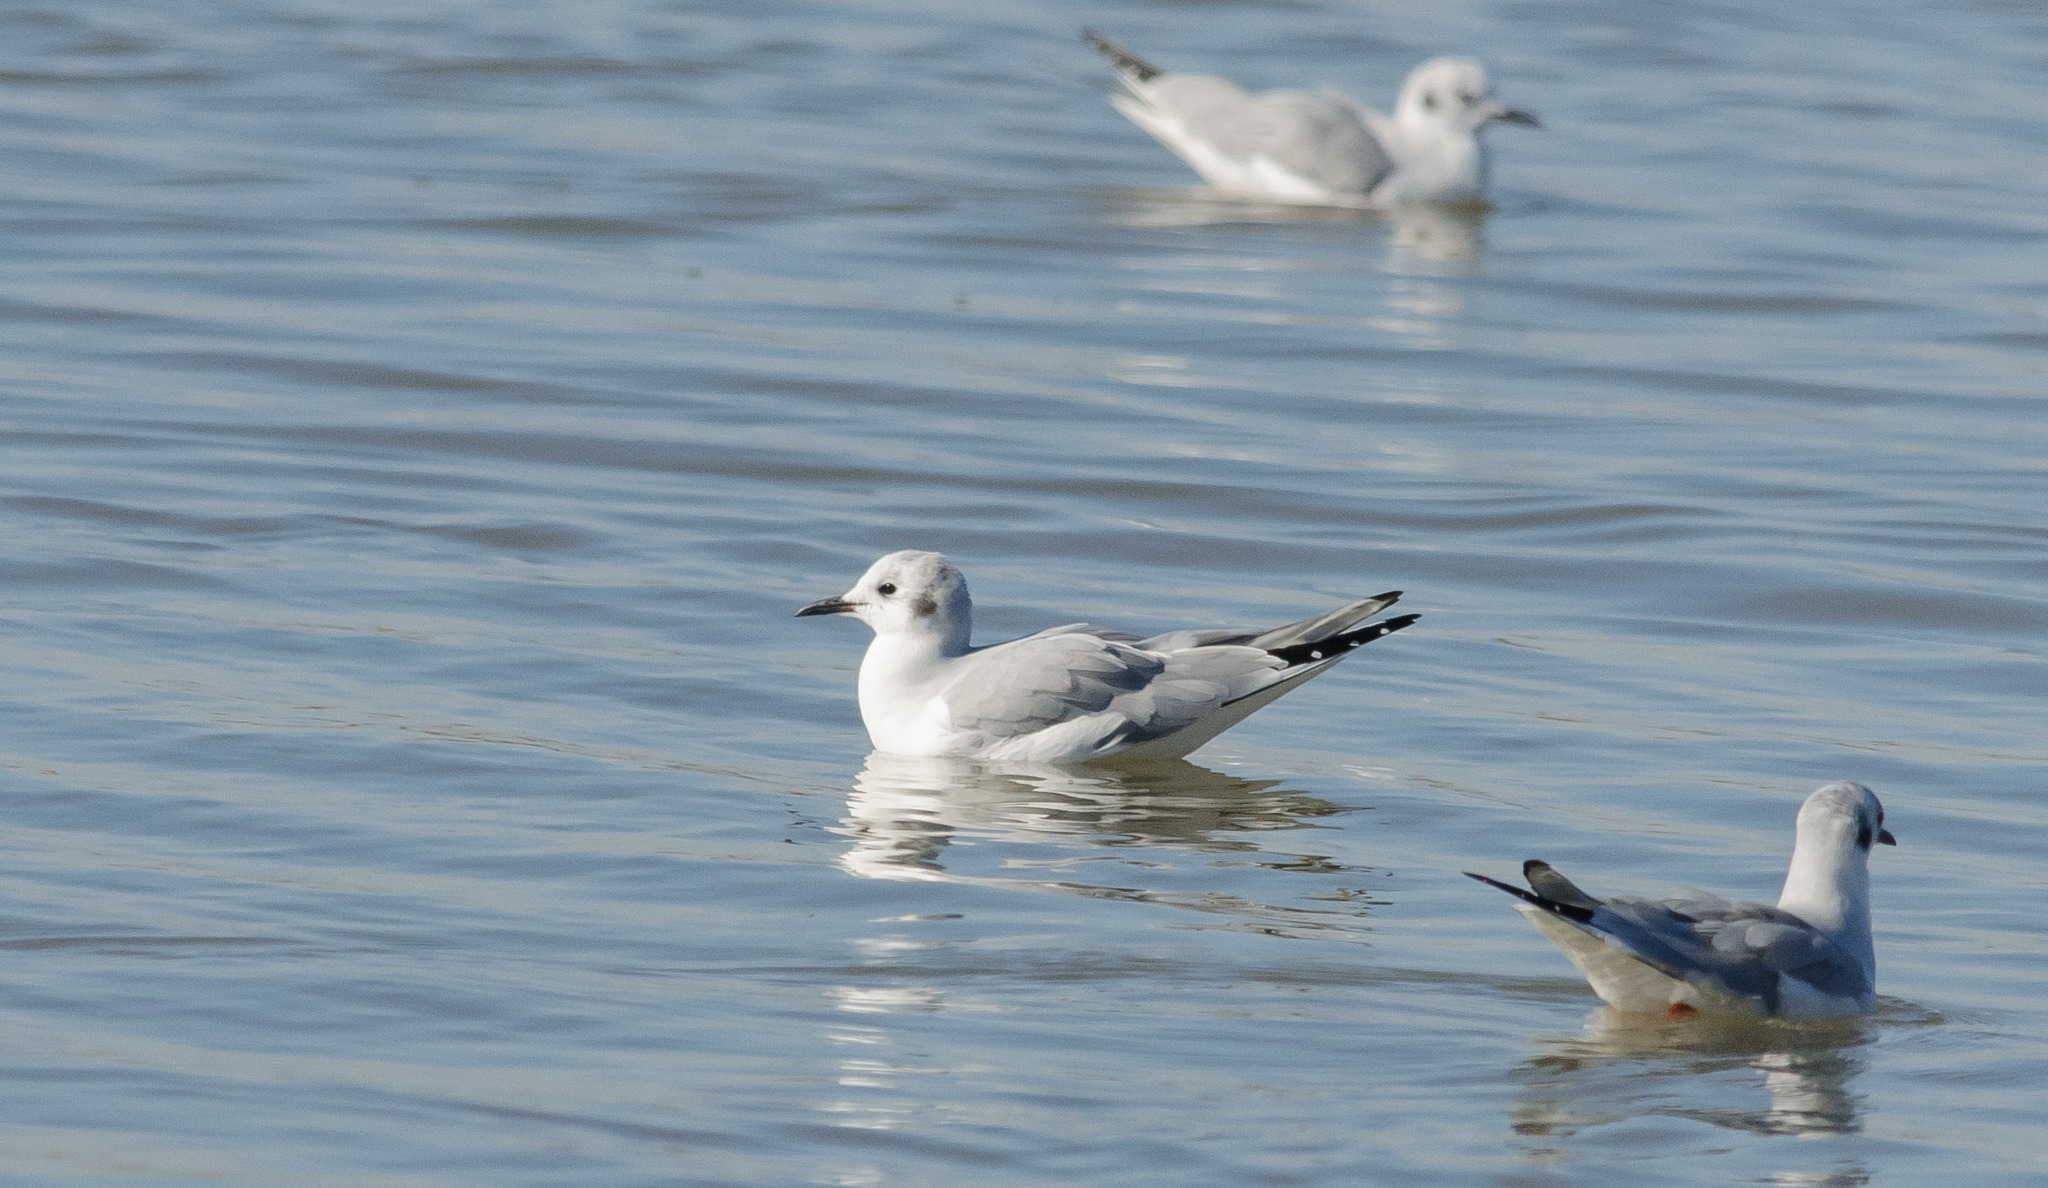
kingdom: Animalia
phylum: Chordata
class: Aves
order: Charadriiformes
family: Laridae
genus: Chroicocephalus
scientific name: Chroicocephalus philadelphia
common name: Bonaparte's gull
